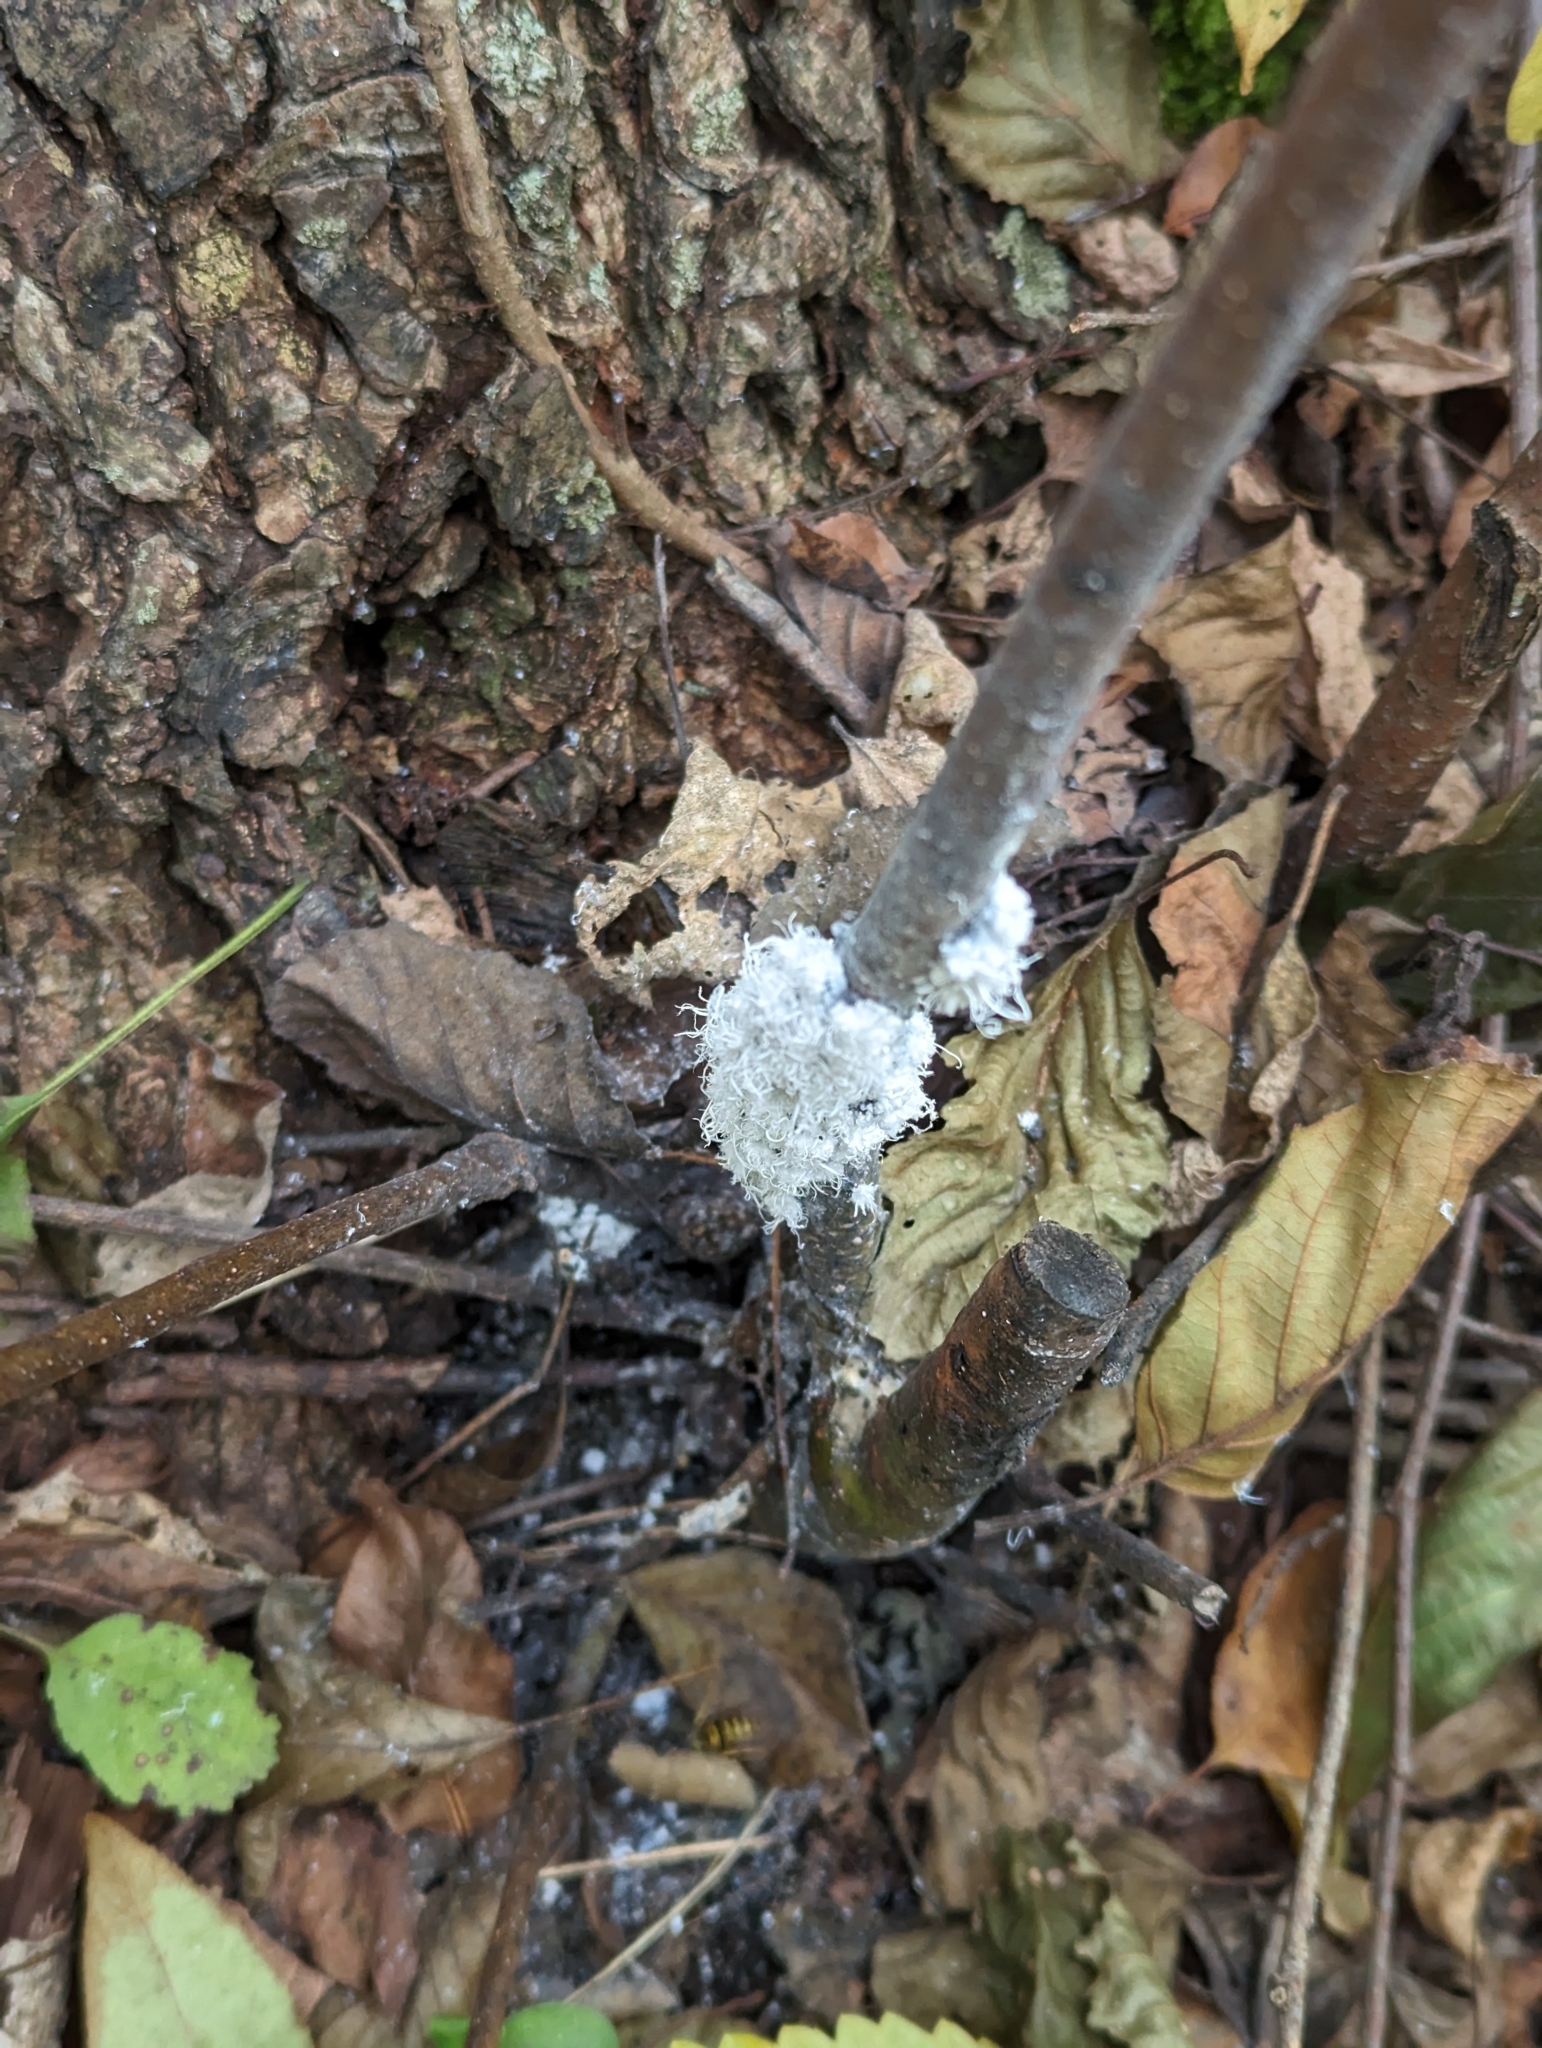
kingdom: Animalia
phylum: Arthropoda
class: Insecta
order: Hemiptera
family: Aphididae
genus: Prociphilus
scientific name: Prociphilus tessellatus
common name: Woolly alder aphid
